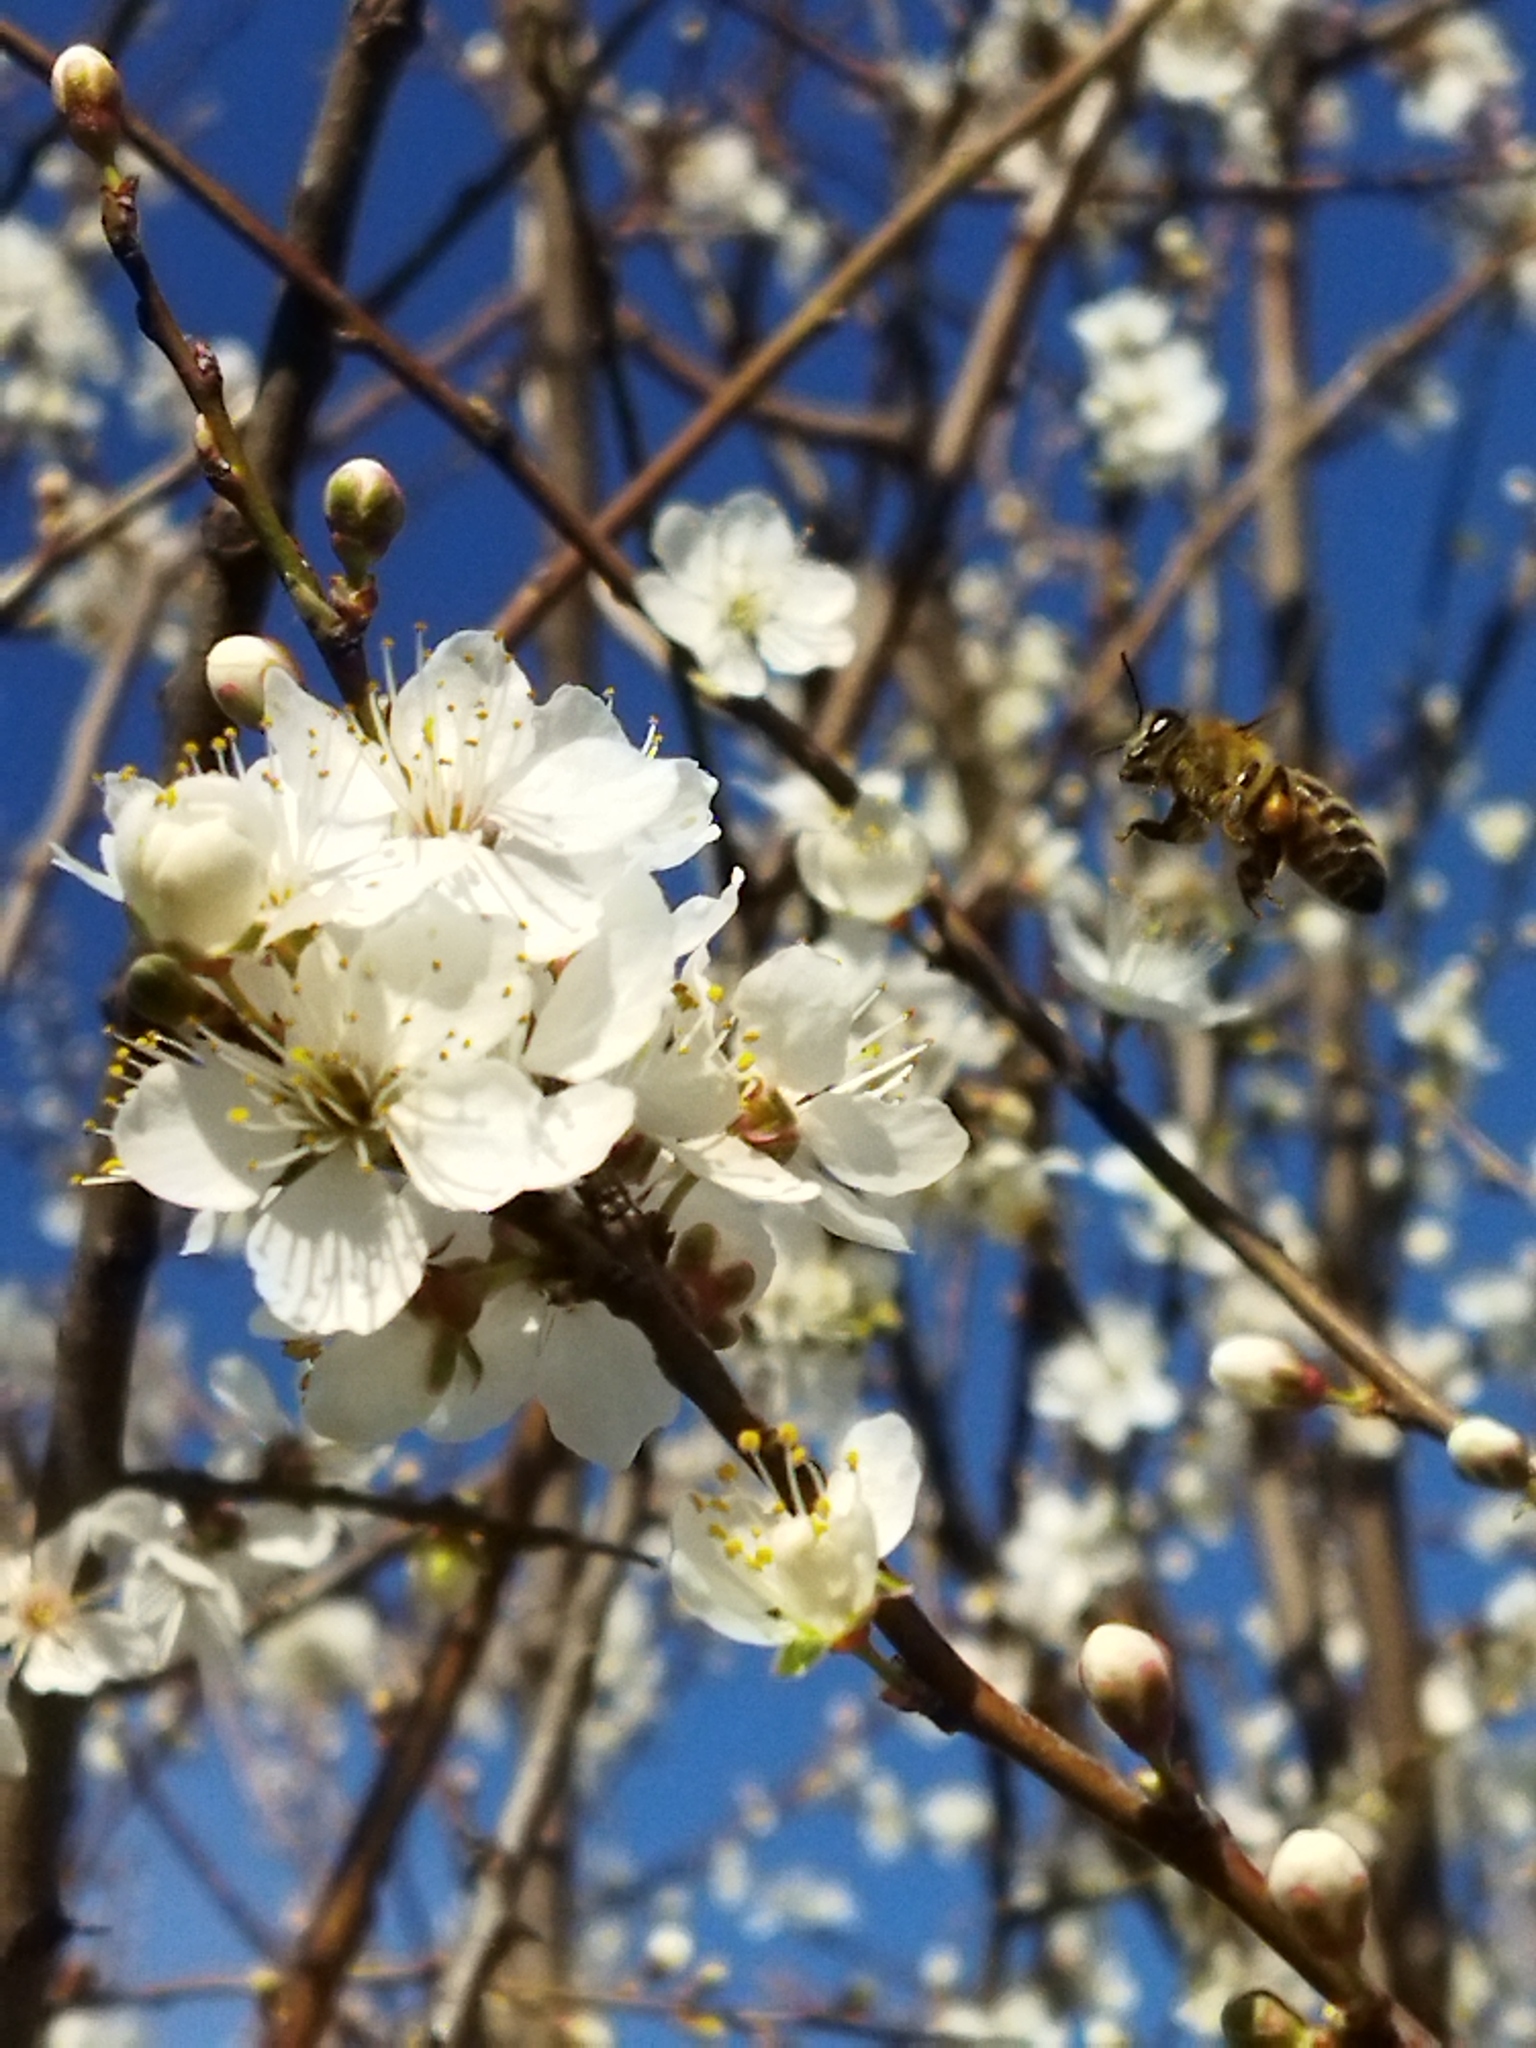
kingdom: Animalia
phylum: Arthropoda
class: Insecta
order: Hymenoptera
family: Apidae
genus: Apis
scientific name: Apis mellifera
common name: Honey bee
